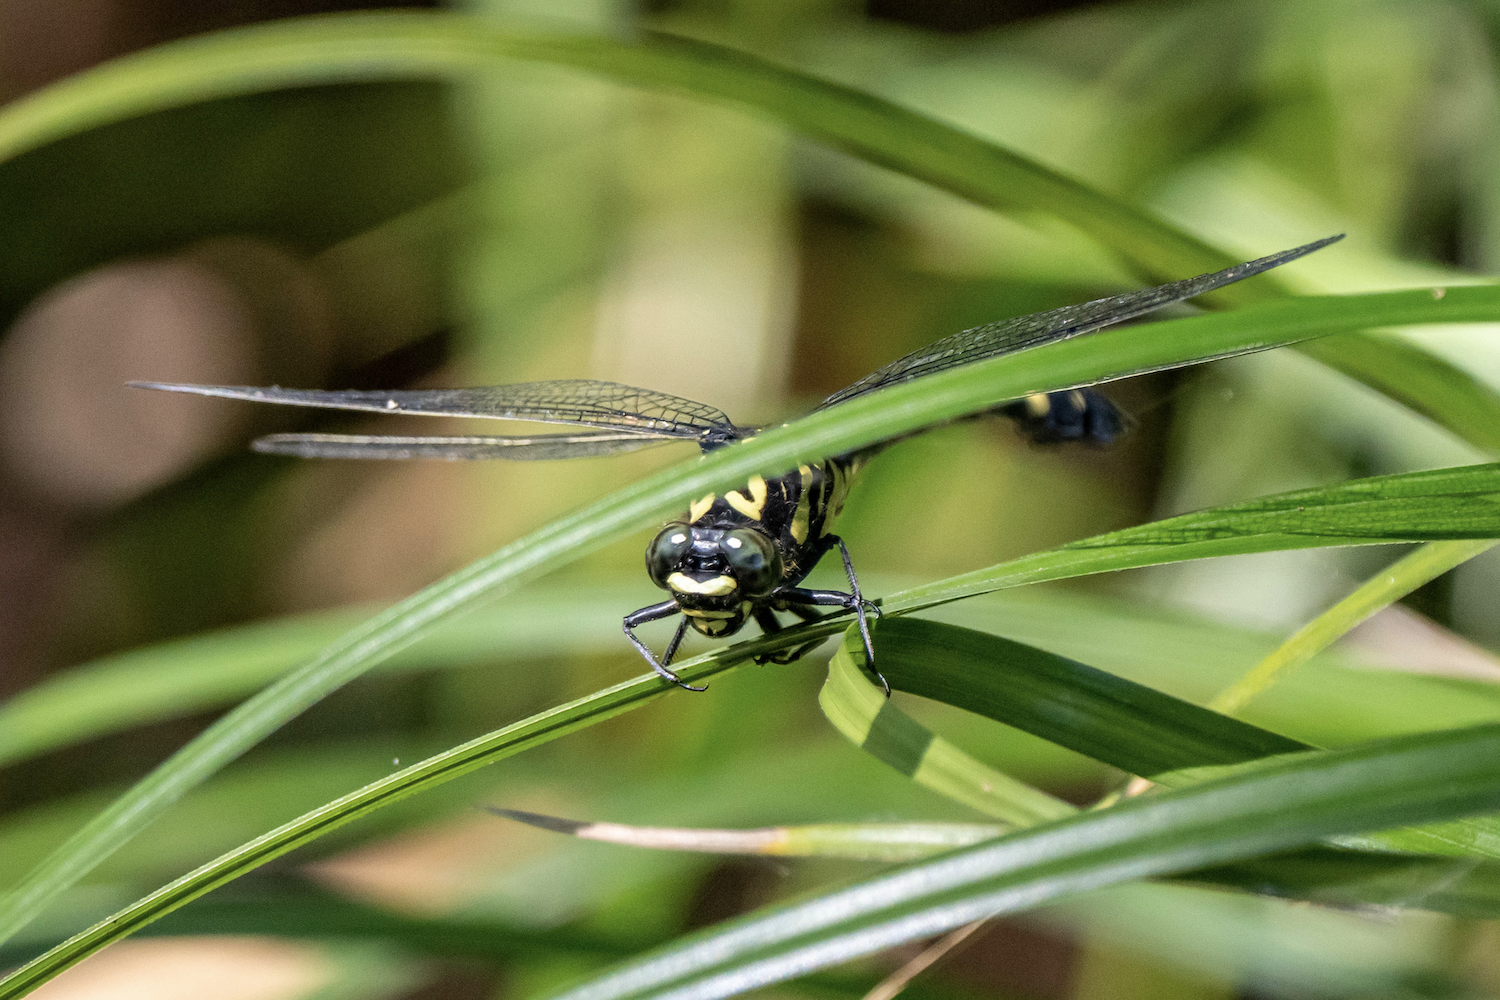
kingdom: Animalia
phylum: Arthropoda
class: Insecta
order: Odonata
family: Gomphidae
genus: Gomphidia
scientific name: Gomphidia kelloggi
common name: Chinese tiger
